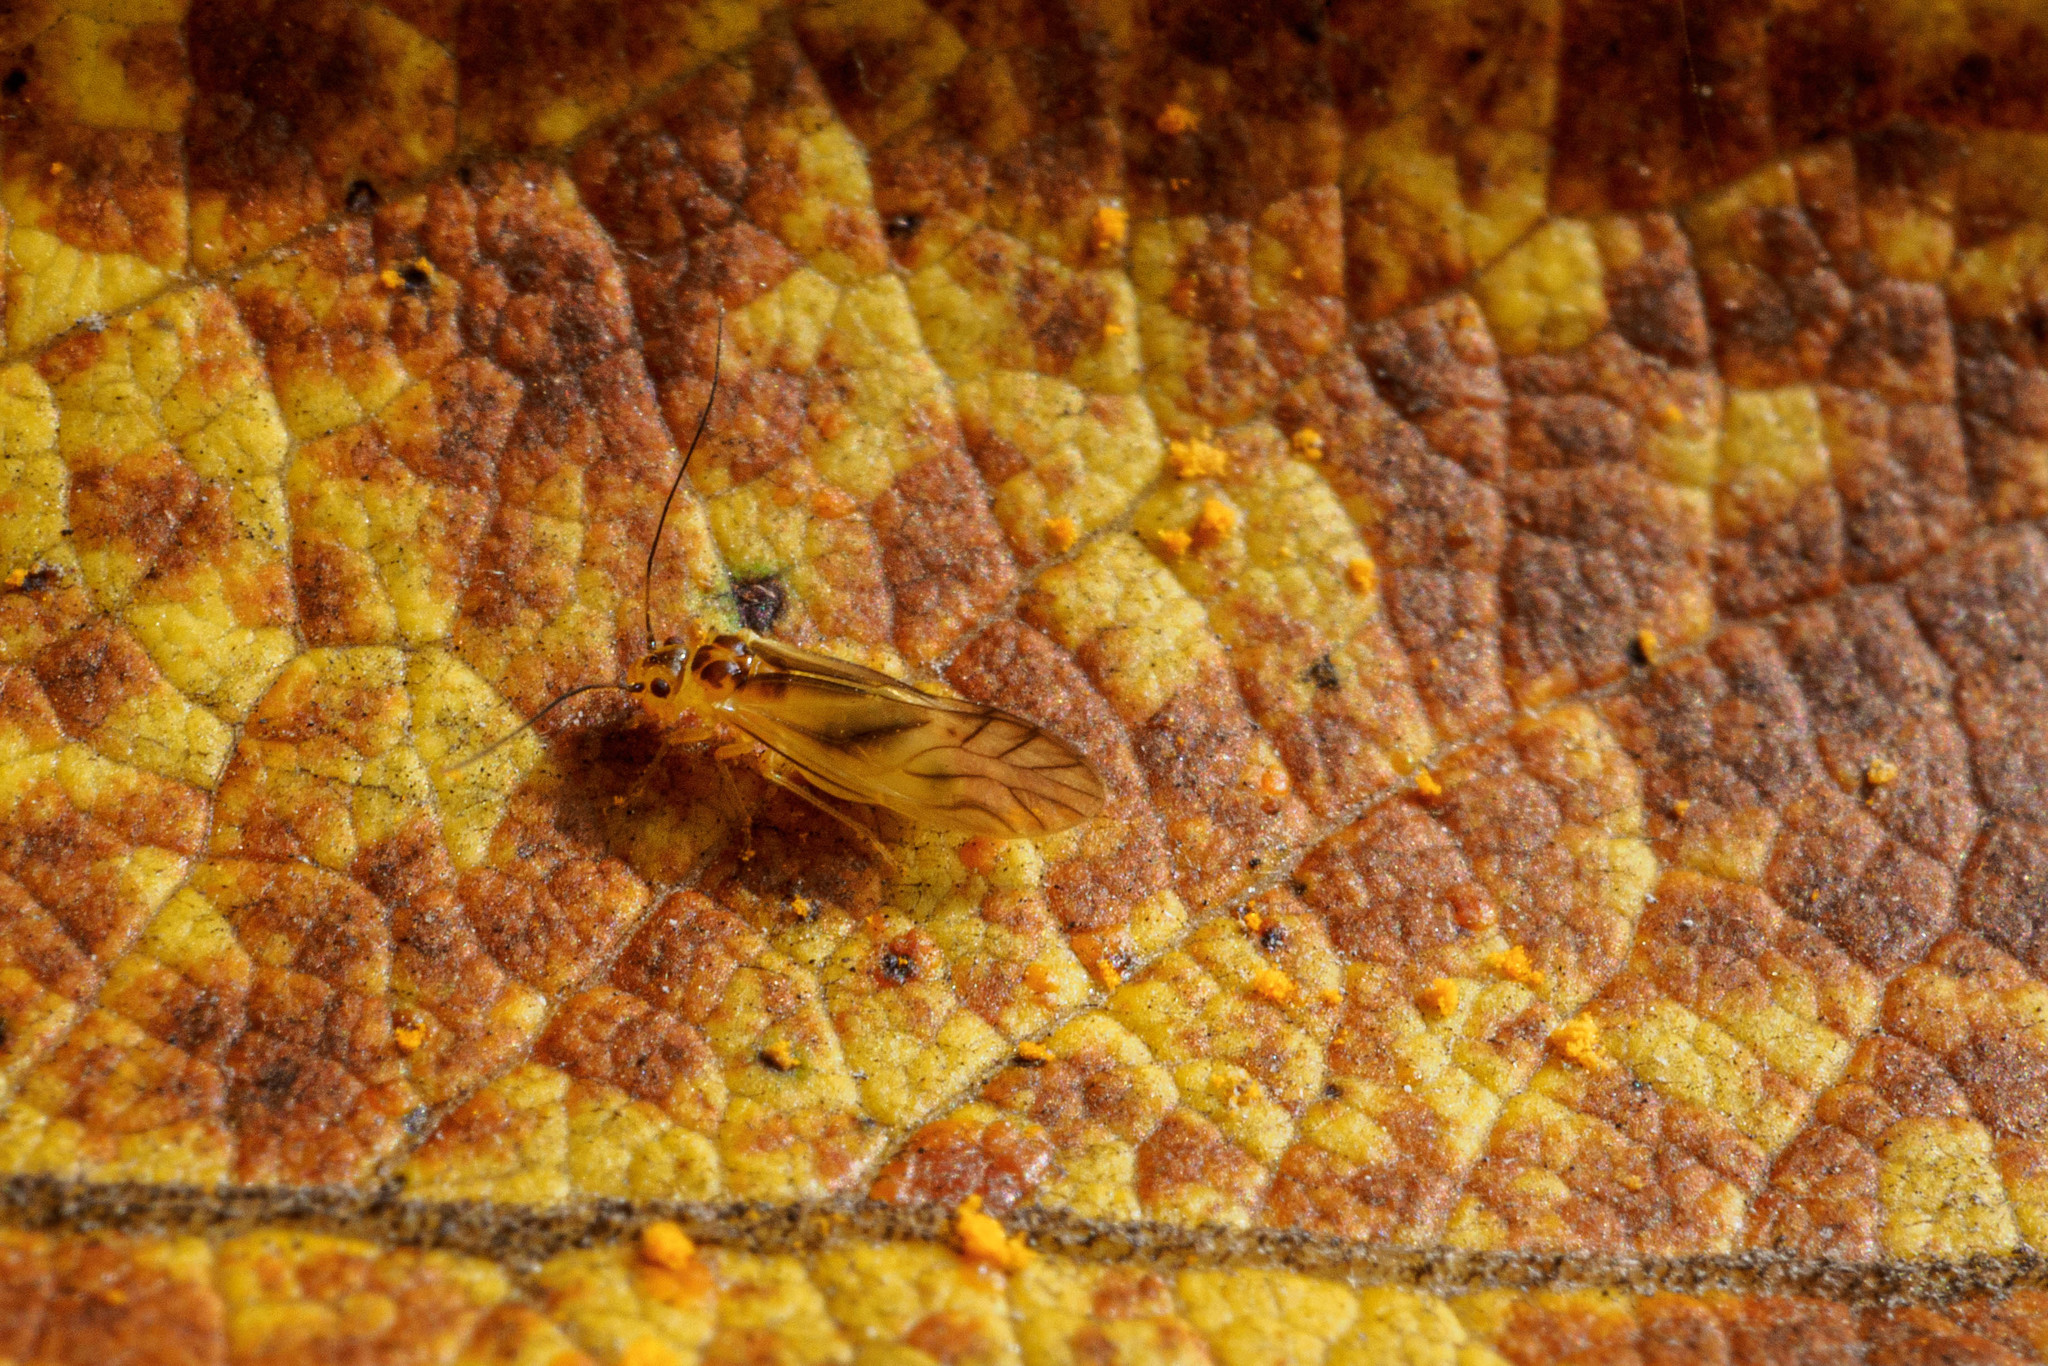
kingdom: Animalia
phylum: Arthropoda
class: Insecta
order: Psocodea
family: Caeciliusidae
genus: Valenzuela
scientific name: Valenzuela flavidus
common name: Yellow barklouse
